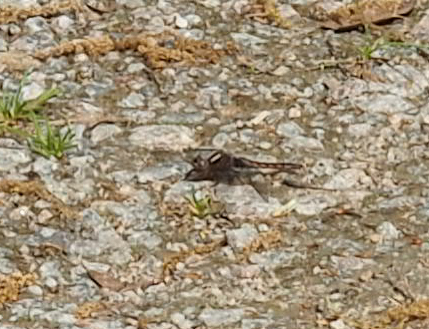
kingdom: Animalia
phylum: Arthropoda
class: Insecta
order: Odonata
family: Libellulidae
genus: Ladona
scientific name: Ladona deplanata
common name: Blue corporal
